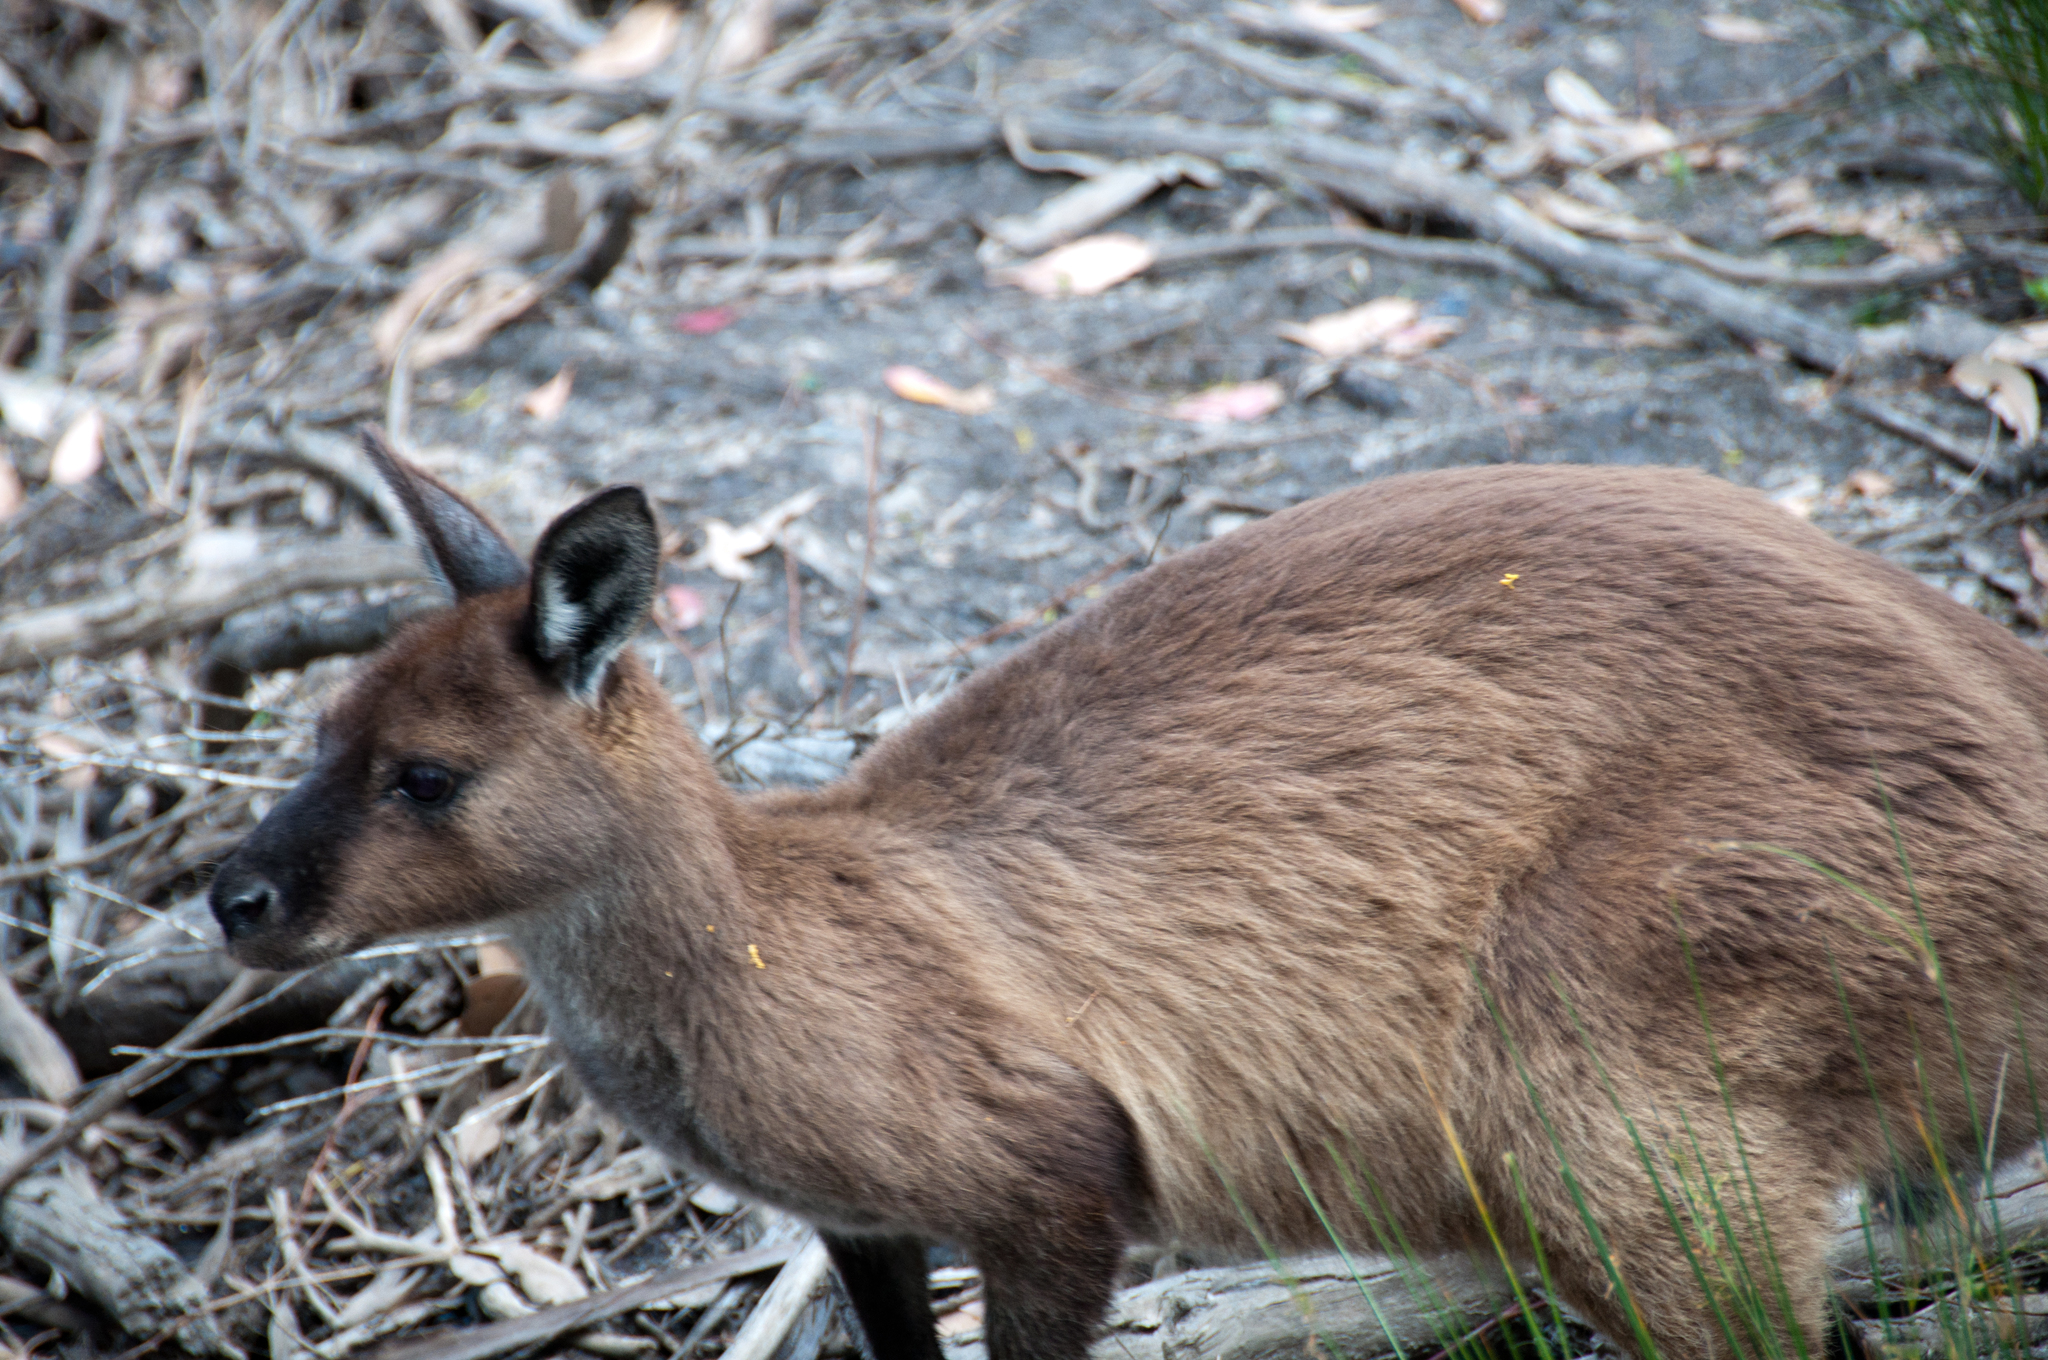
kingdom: Animalia
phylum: Chordata
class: Mammalia
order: Diprotodontia
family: Macropodidae
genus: Macropus
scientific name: Macropus fuliginosus
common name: Western grey kangaroo
